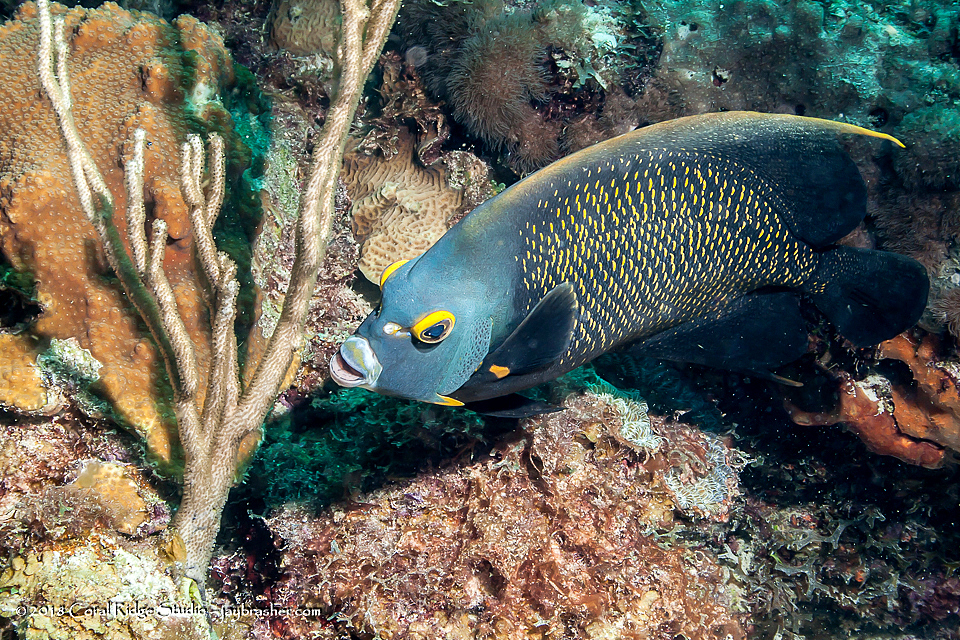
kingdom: Animalia
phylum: Chordata
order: Perciformes
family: Pomacanthidae
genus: Pomacanthus
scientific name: Pomacanthus paru
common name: French angelfish
